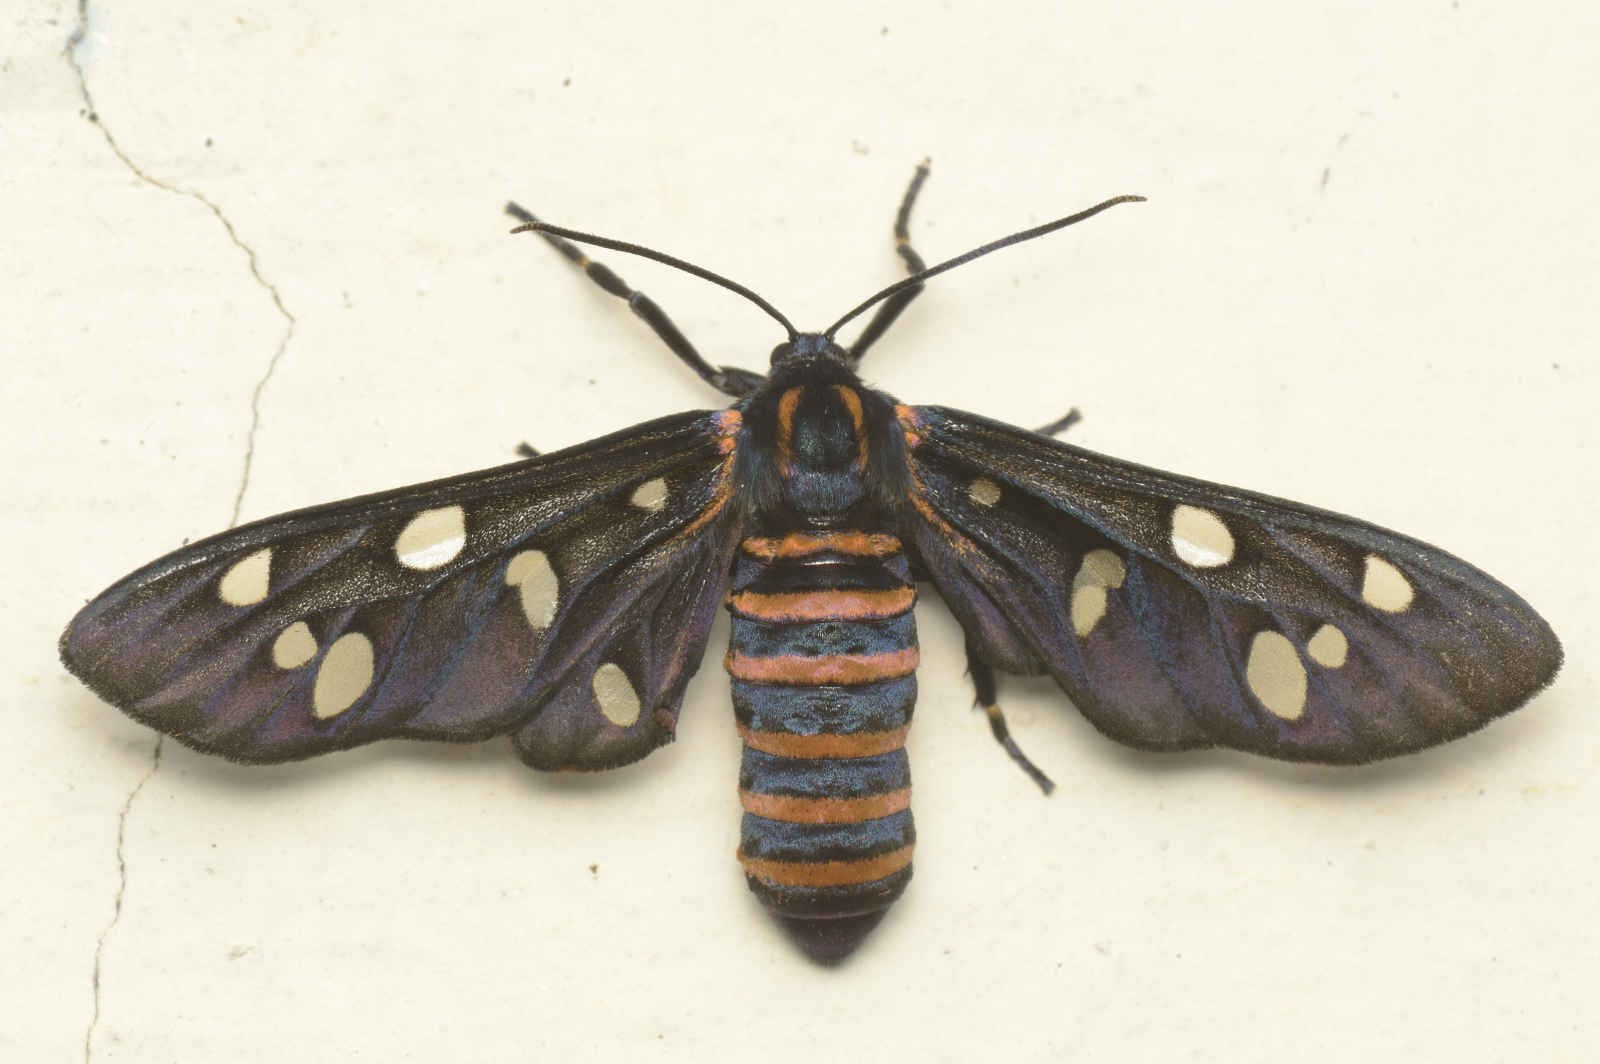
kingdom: Animalia
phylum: Arthropoda
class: Insecta
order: Lepidoptera
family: Erebidae
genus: Amata
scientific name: Amata passalis
